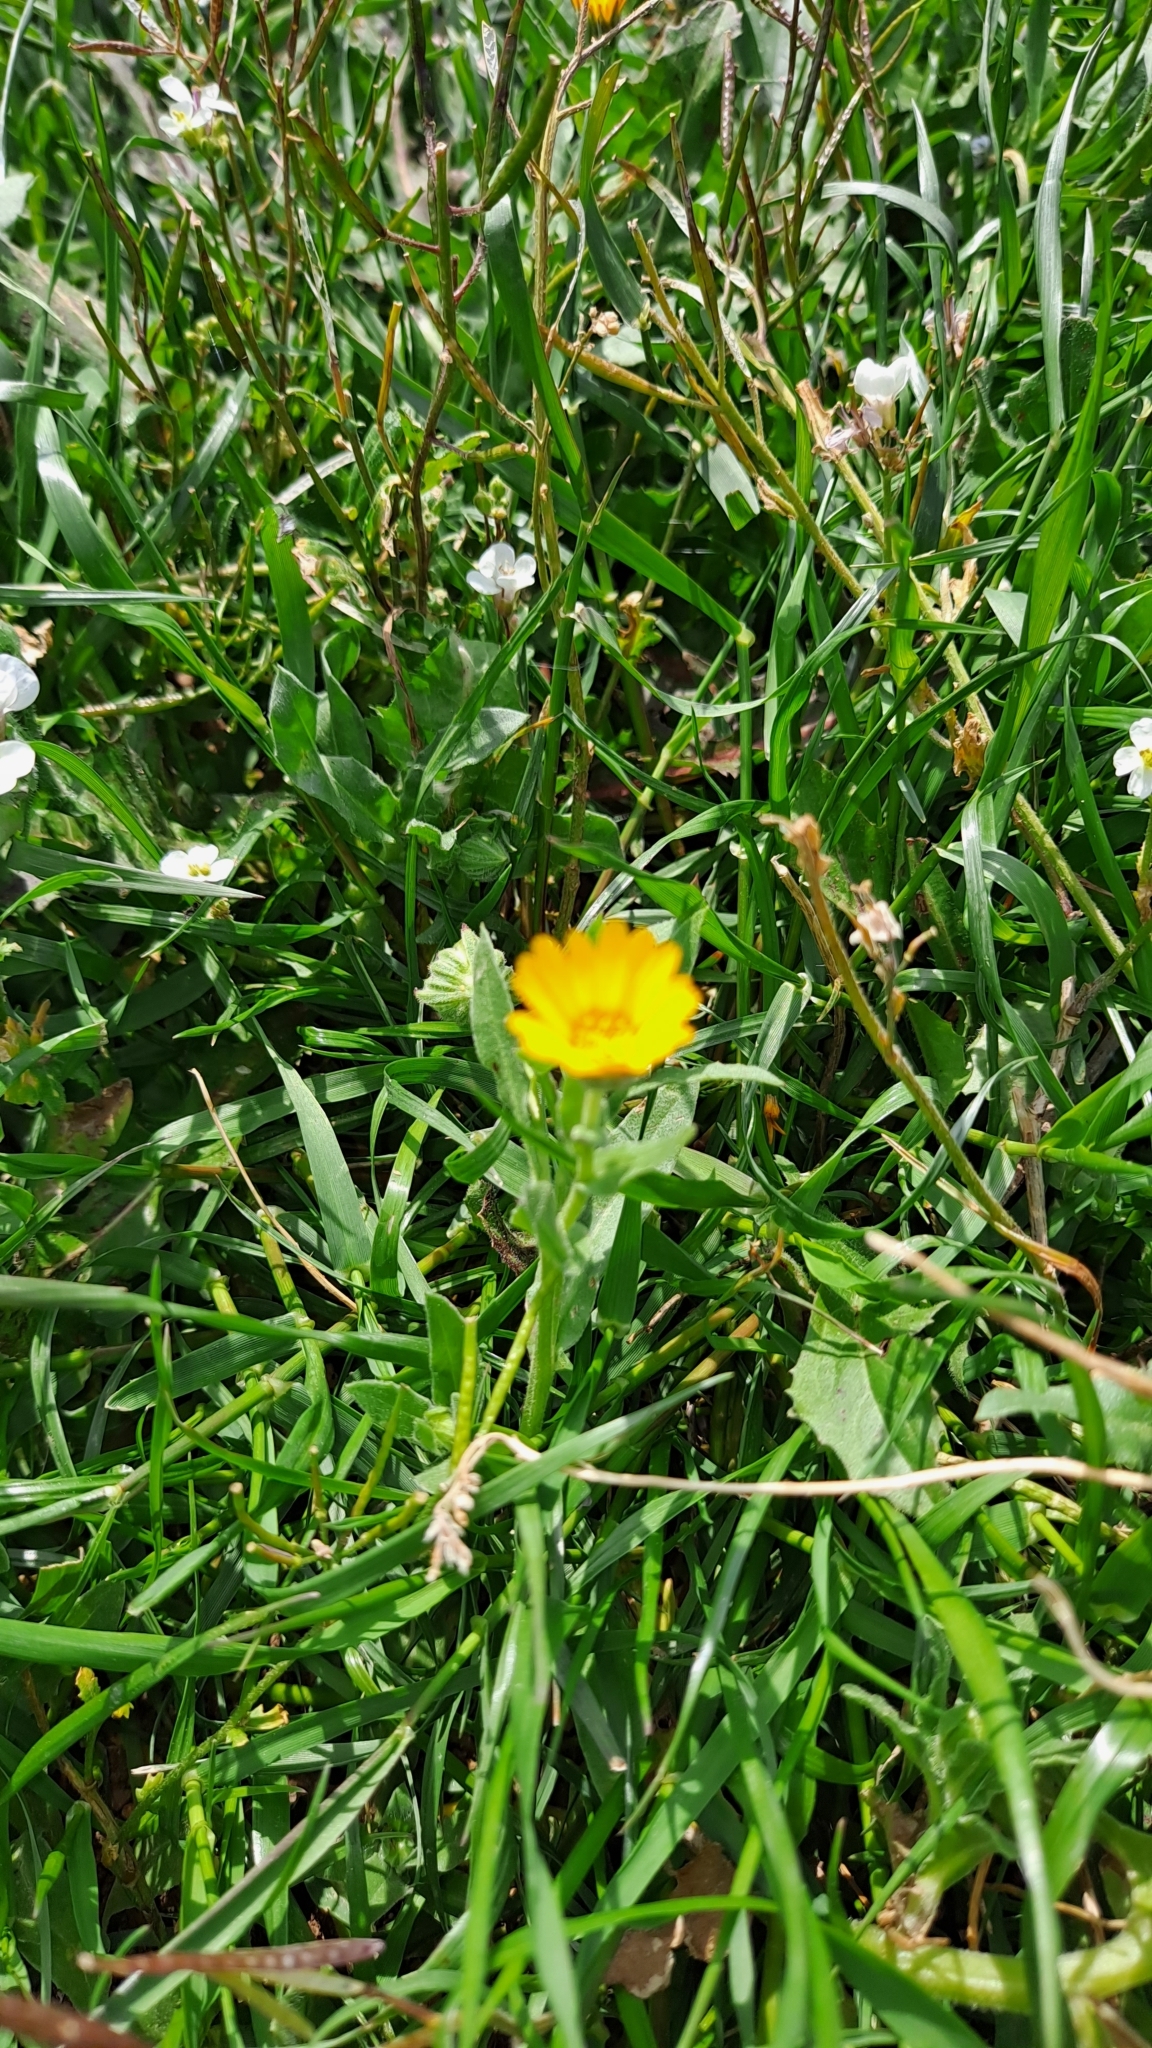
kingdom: Plantae
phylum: Tracheophyta
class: Magnoliopsida
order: Asterales
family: Asteraceae
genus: Calendula
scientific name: Calendula arvensis
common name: Field marigold
